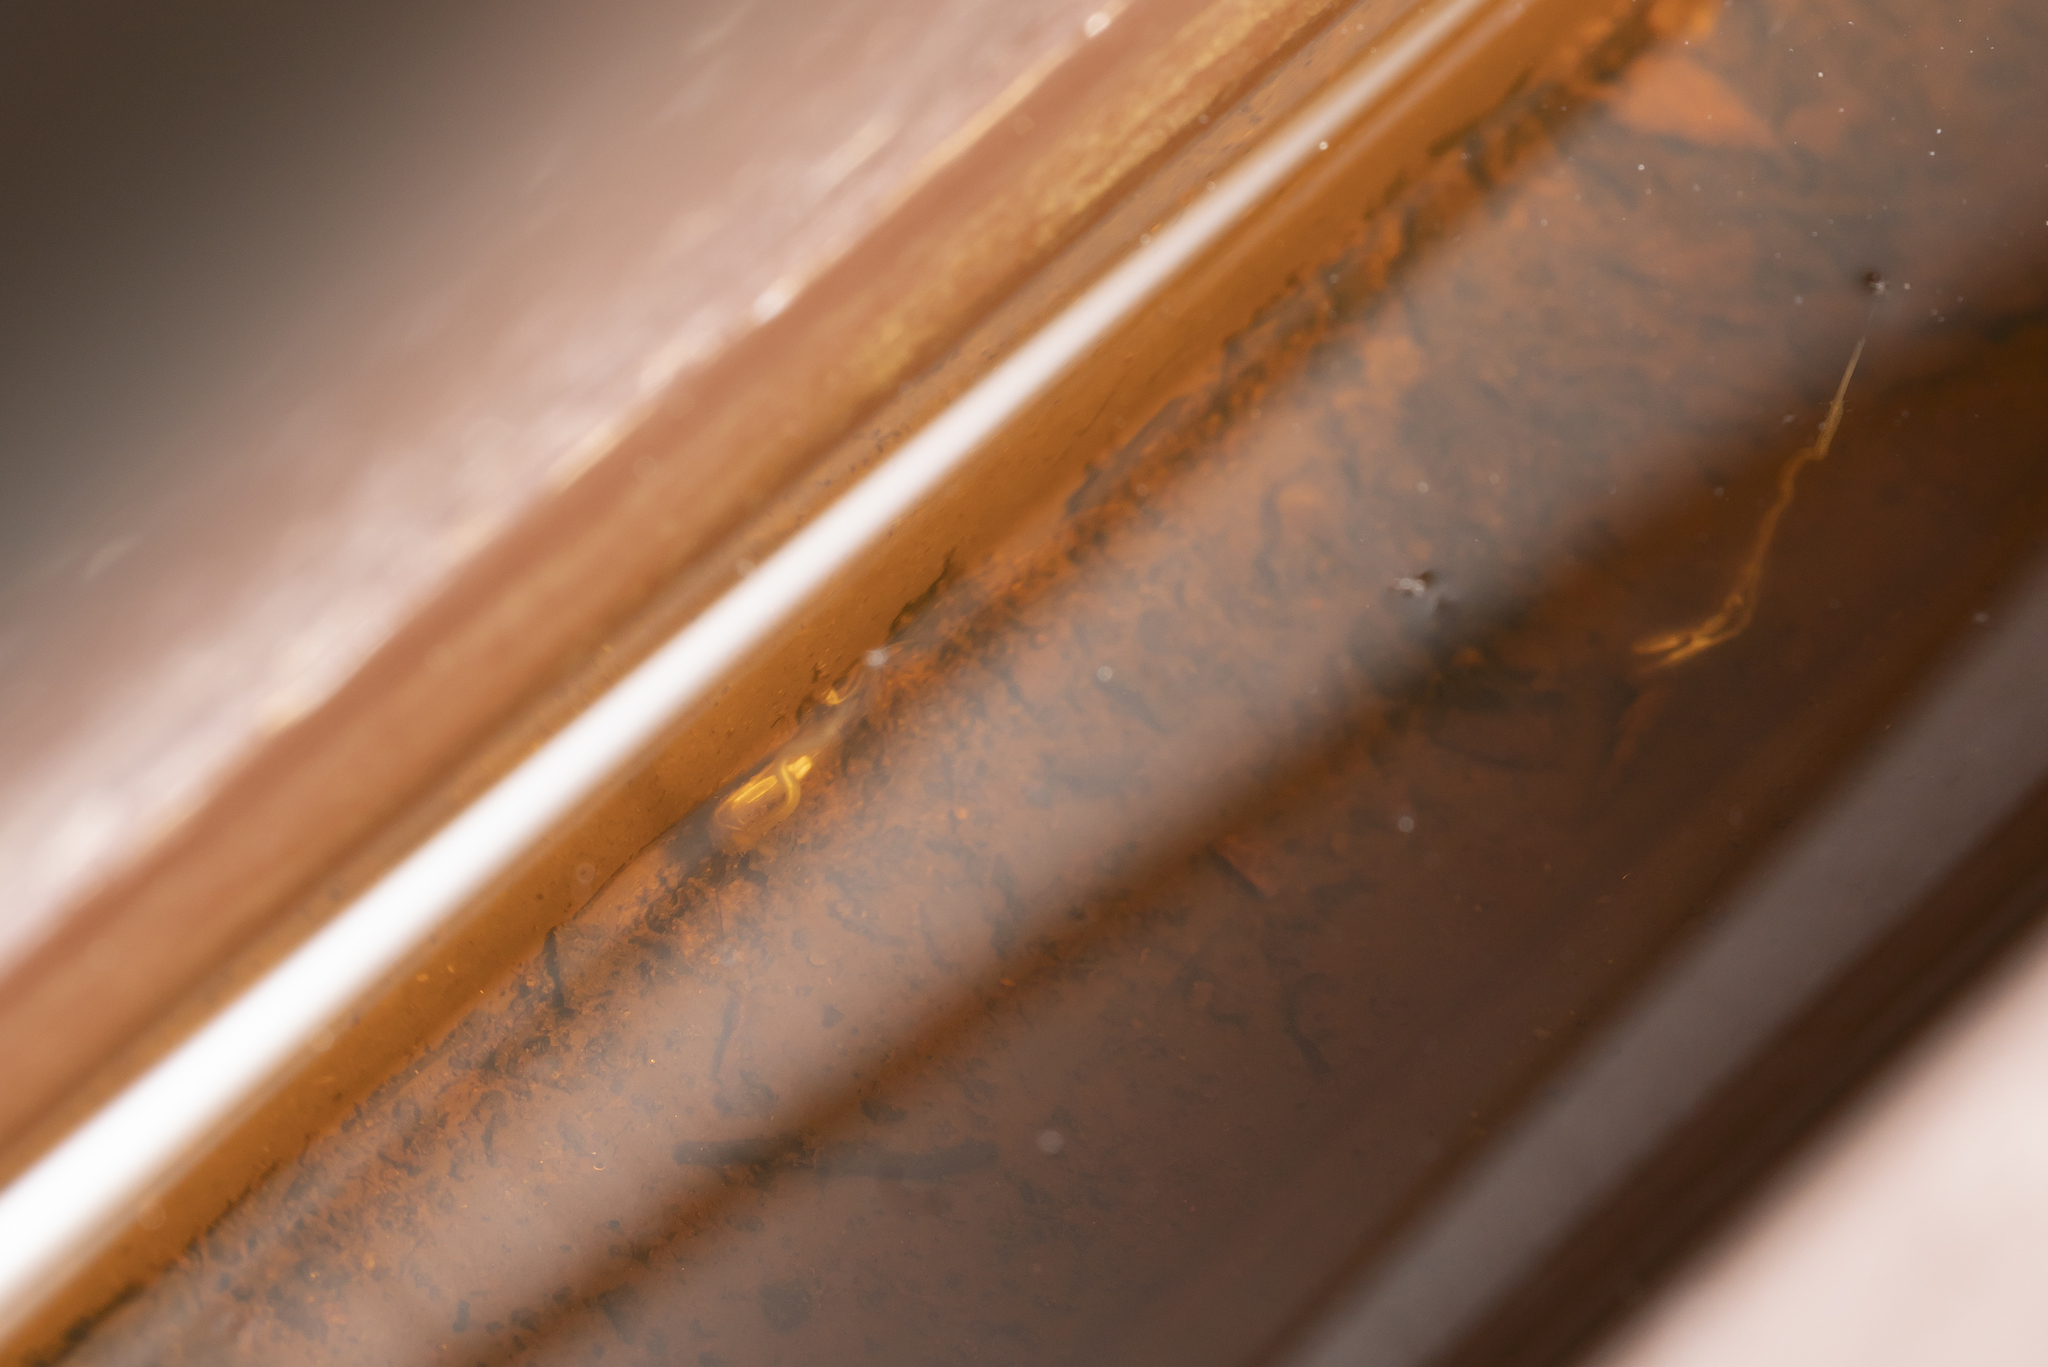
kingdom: Animalia
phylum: Arthropoda
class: Insecta
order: Diptera
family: Syrphidae
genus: Myathropa
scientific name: Myathropa florea
